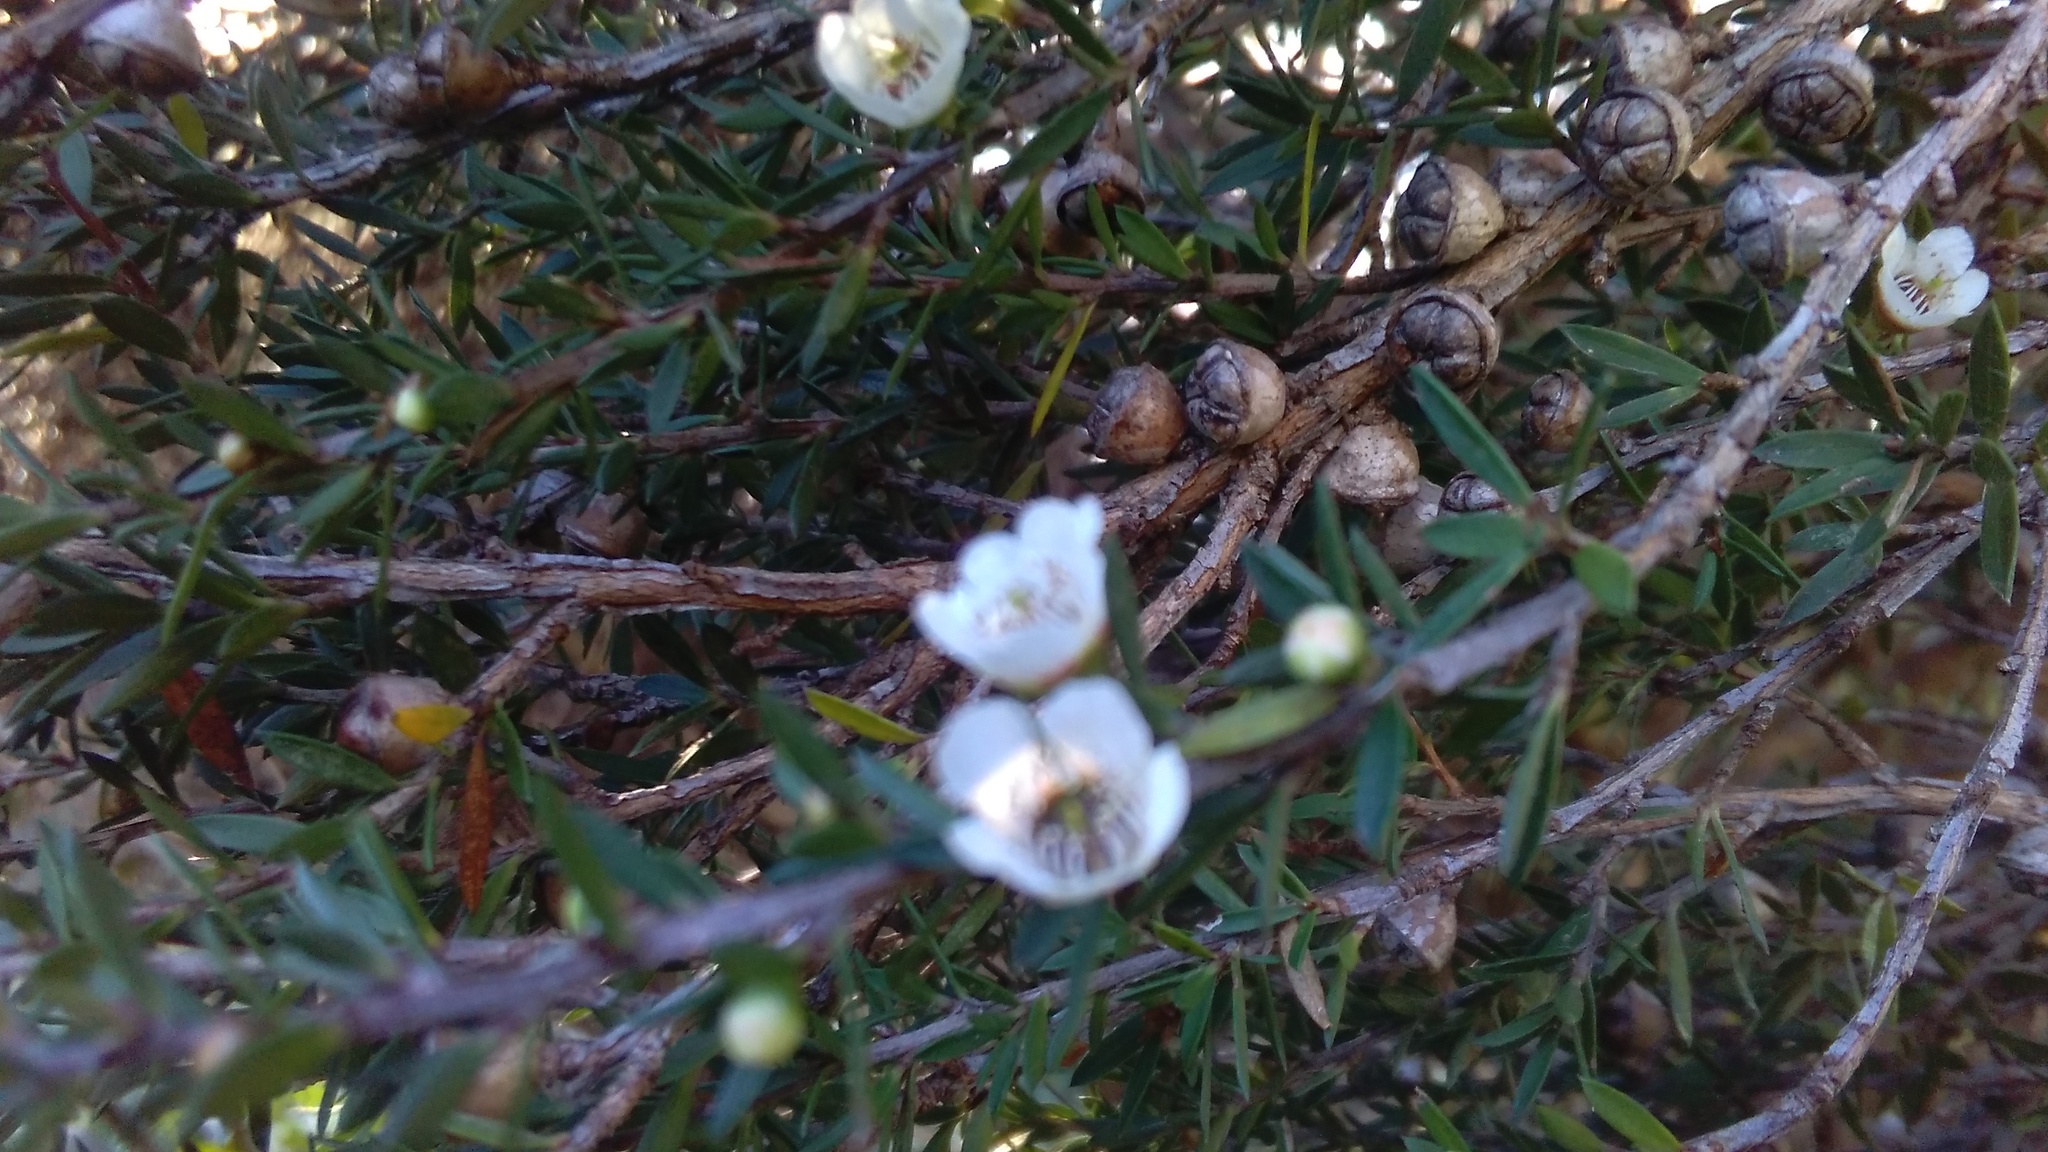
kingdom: Plantae
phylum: Tracheophyta
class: Magnoliopsida
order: Myrtales
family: Myrtaceae
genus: Leptospermum
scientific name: Leptospermum scoparium
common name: Broom tea-tree
